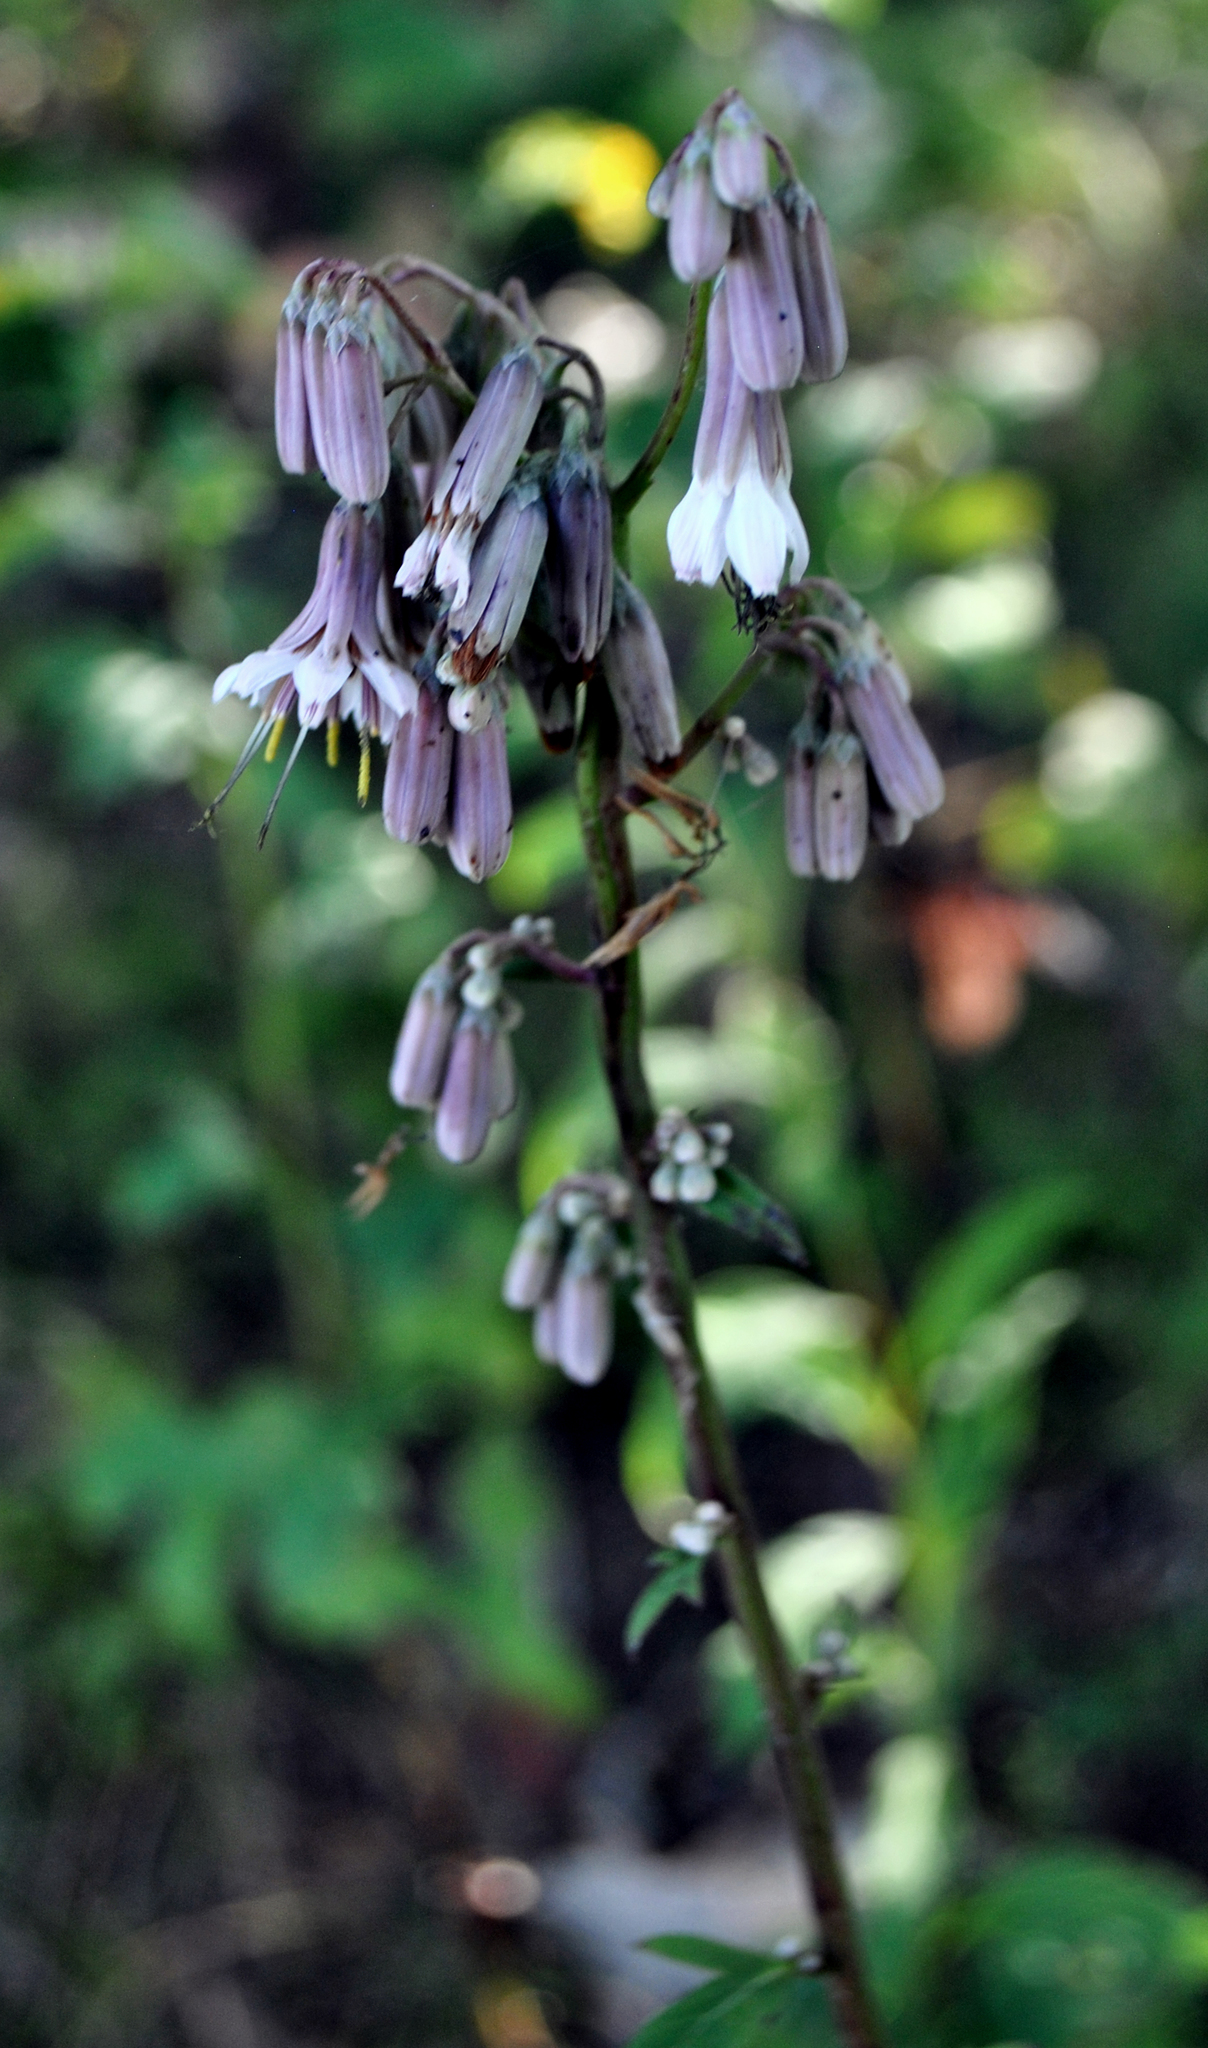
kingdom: Plantae
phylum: Tracheophyta
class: Magnoliopsida
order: Asterales
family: Asteraceae
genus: Nabalus
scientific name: Nabalus albus
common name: White rattlesnakeroot
